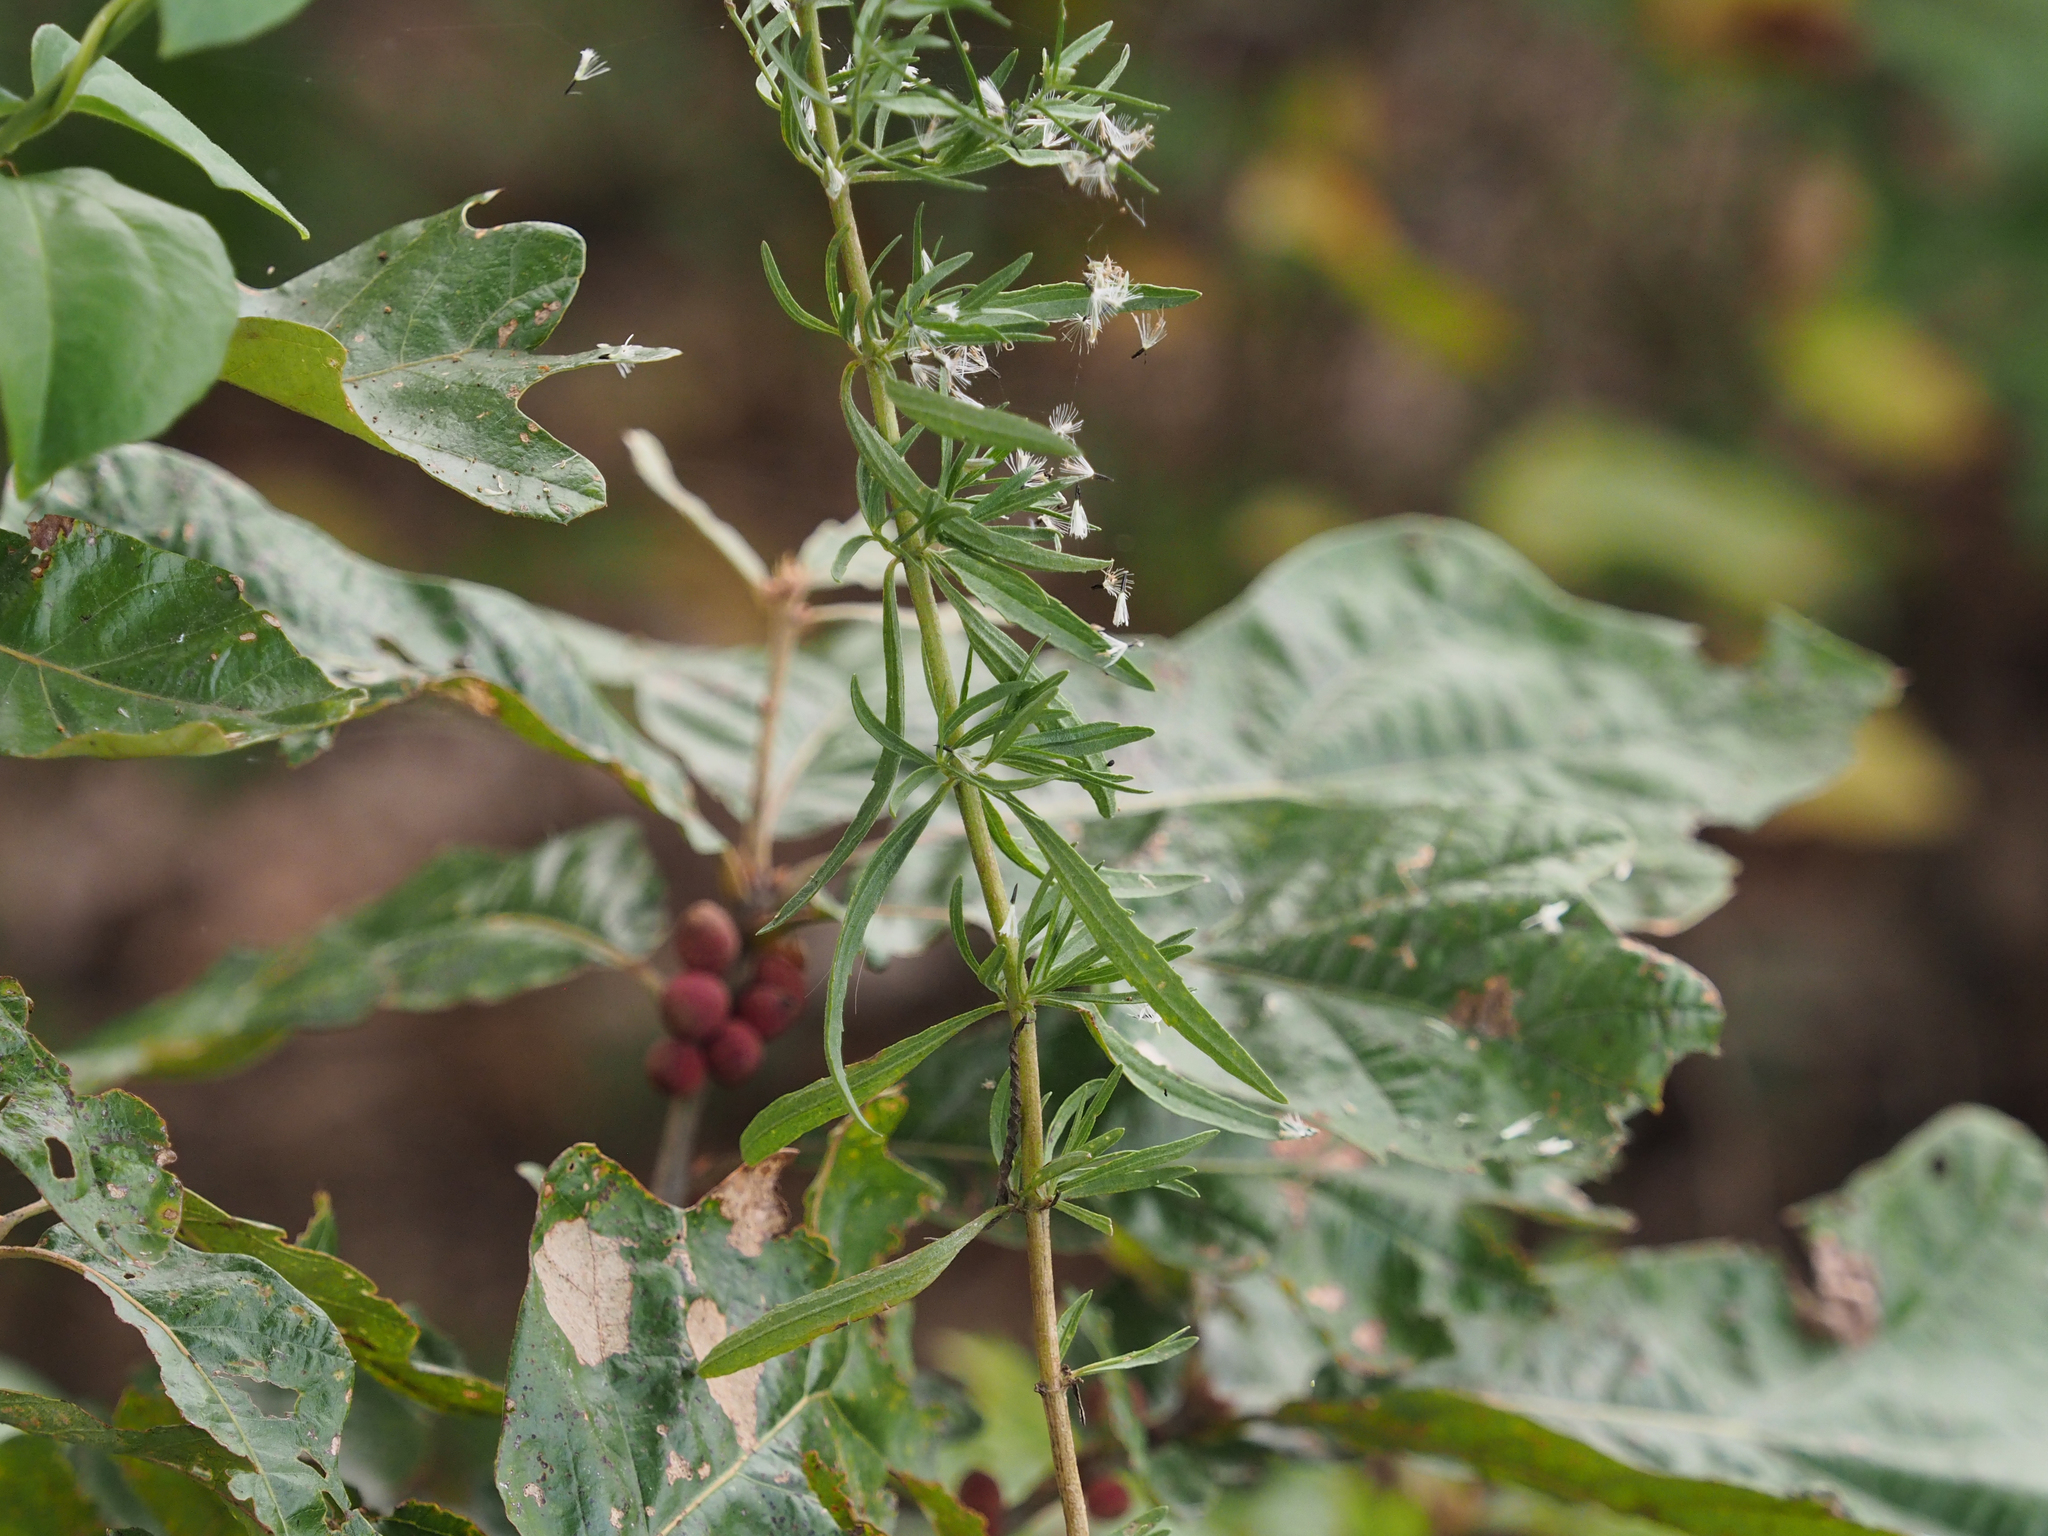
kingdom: Plantae
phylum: Tracheophyta
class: Magnoliopsida
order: Asterales
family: Asteraceae
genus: Eupatorium
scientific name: Eupatorium hyssopifolium
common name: Hyssop-leaf thoroughwort
